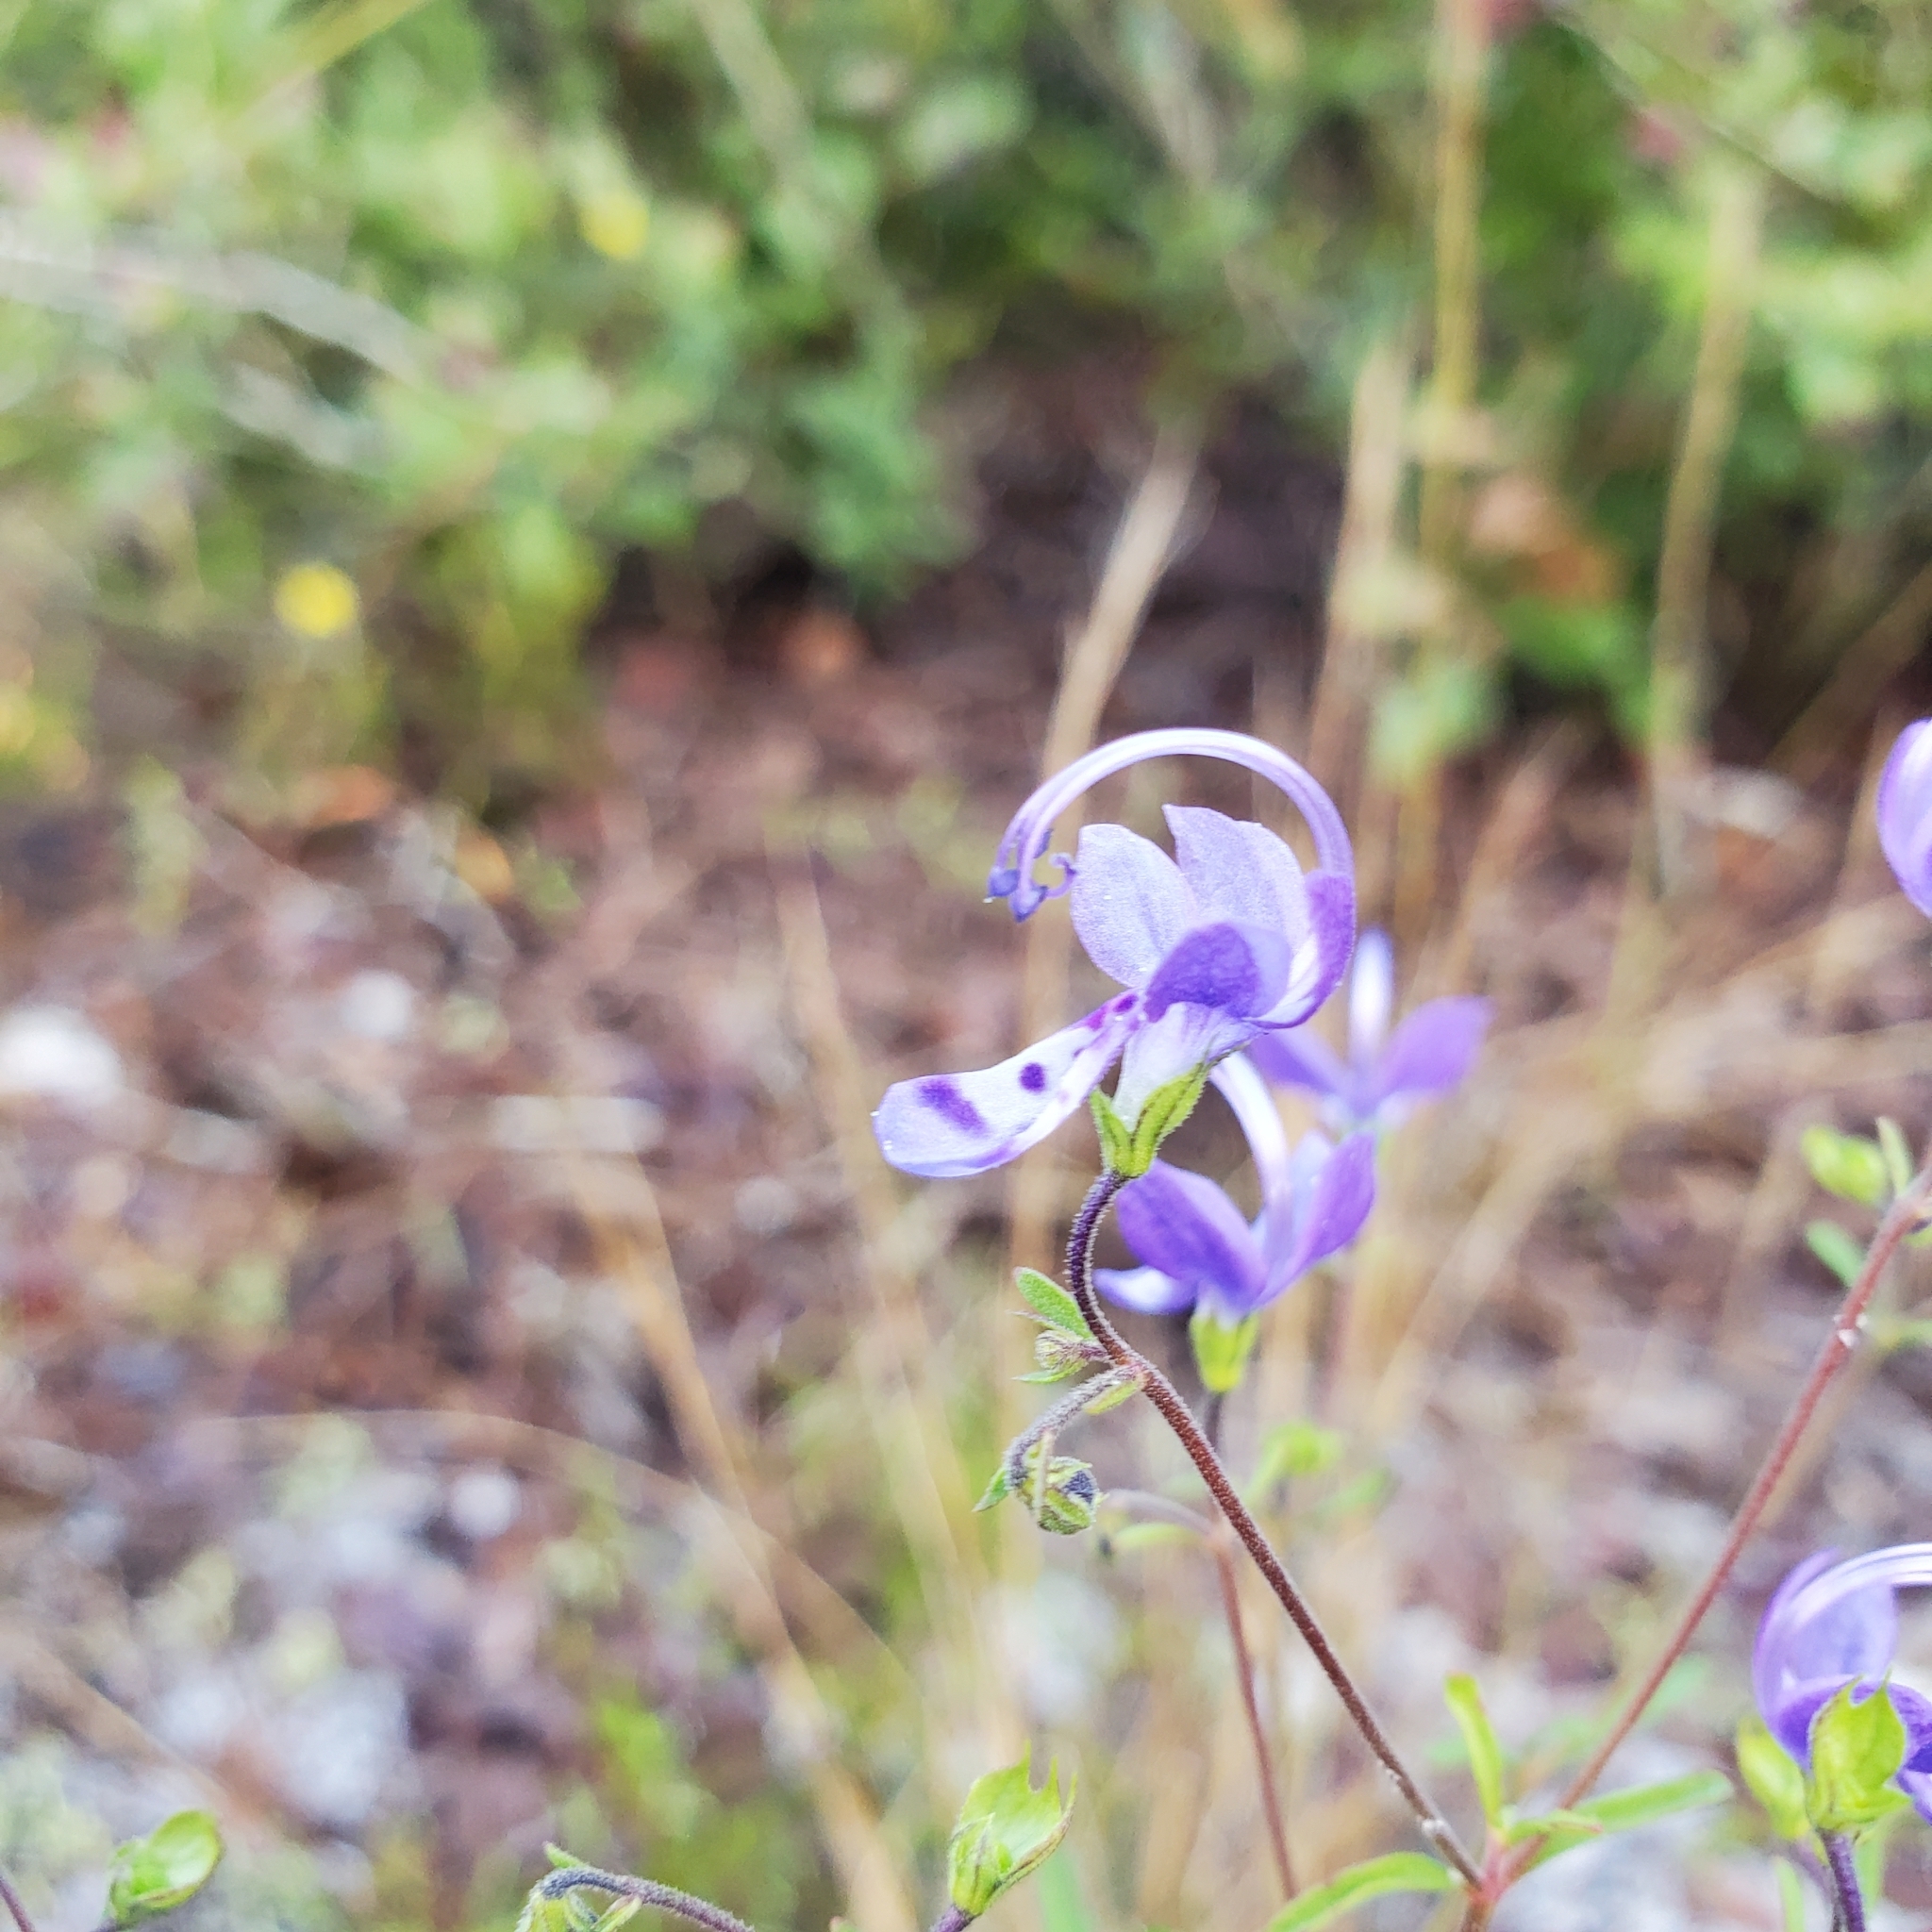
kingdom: Plantae
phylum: Tracheophyta
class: Magnoliopsida
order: Lamiales
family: Lamiaceae
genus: Trichostema
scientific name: Trichostema gracile
